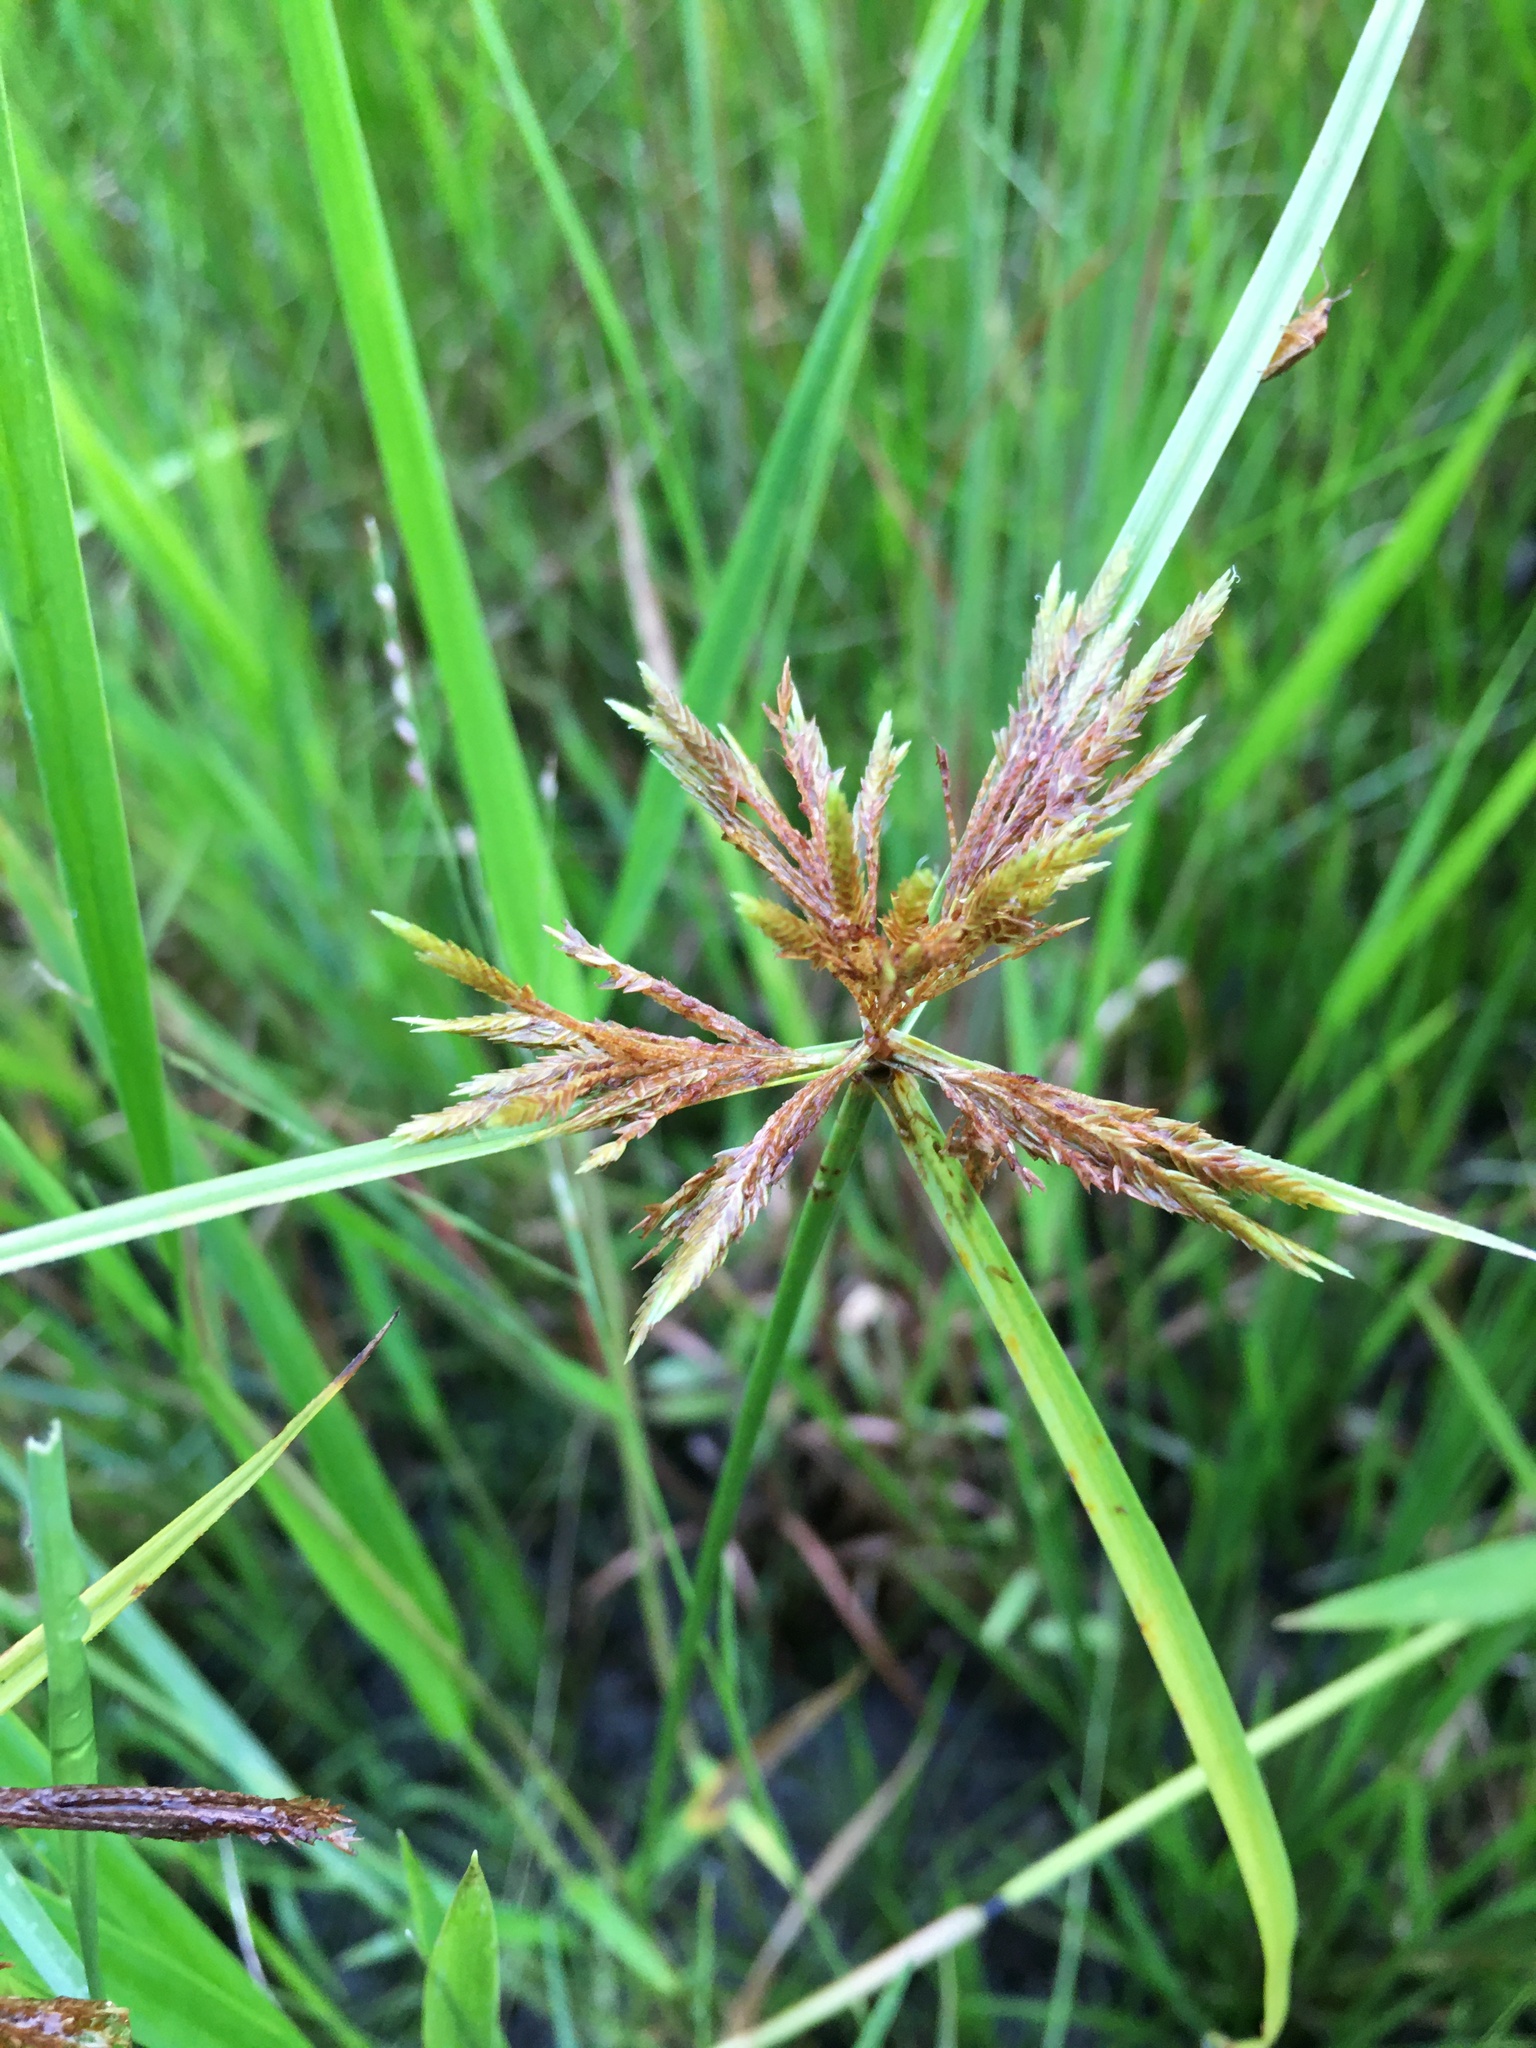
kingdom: Plantae
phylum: Tracheophyta
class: Liliopsida
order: Poales
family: Cyperaceae
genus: Cyperus
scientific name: Cyperus polystachyos
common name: Bunchy flat sedge
